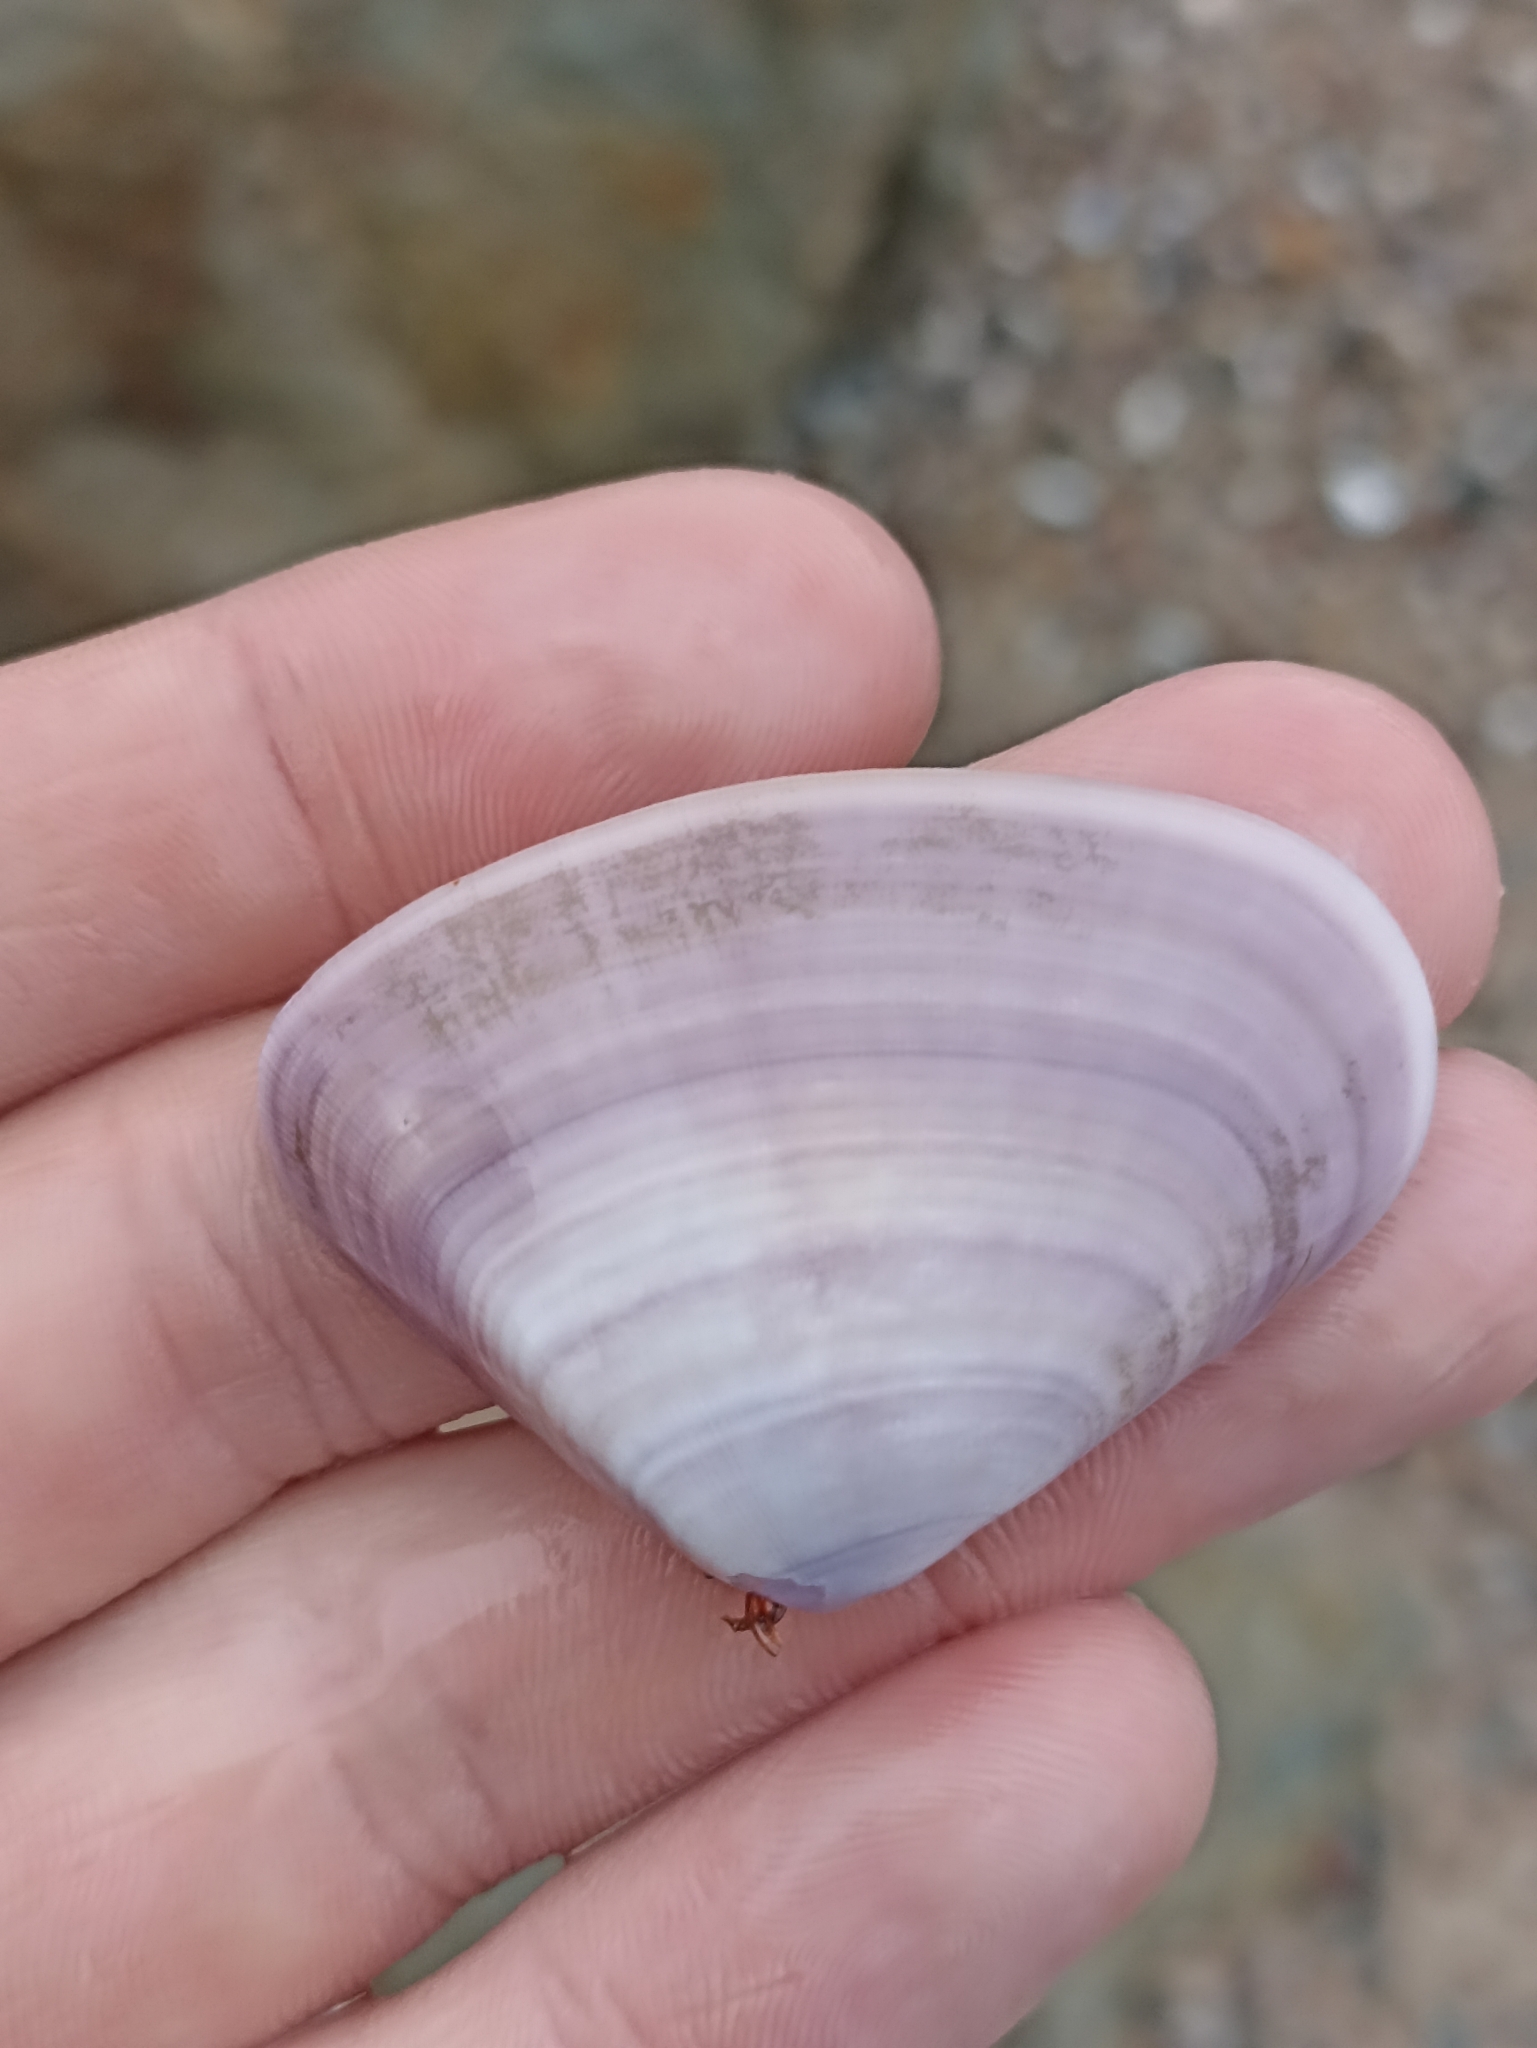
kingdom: Animalia
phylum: Mollusca
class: Bivalvia
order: Cardiida
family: Donacidae
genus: Latona
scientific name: Latona deltoides
